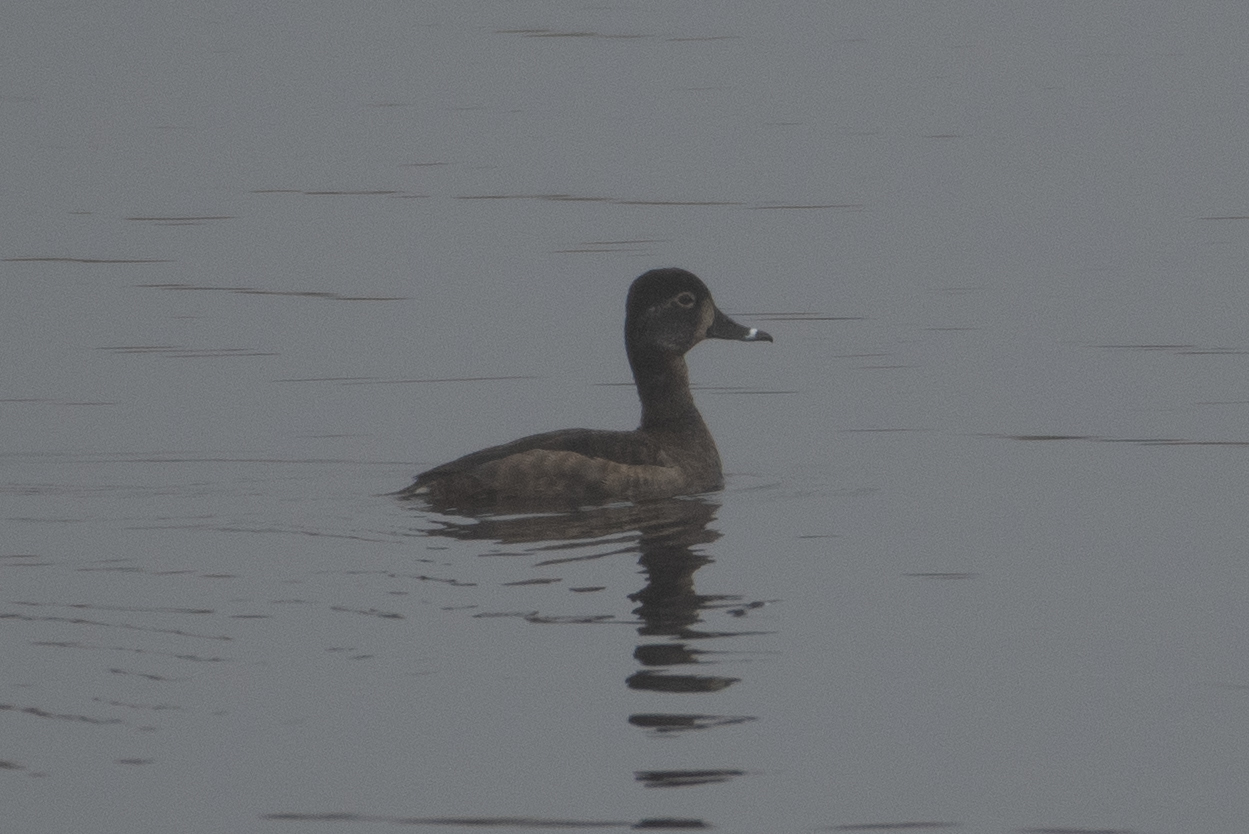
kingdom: Animalia
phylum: Chordata
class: Aves
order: Anseriformes
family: Anatidae
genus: Aythya
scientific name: Aythya collaris
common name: Ring-necked duck
